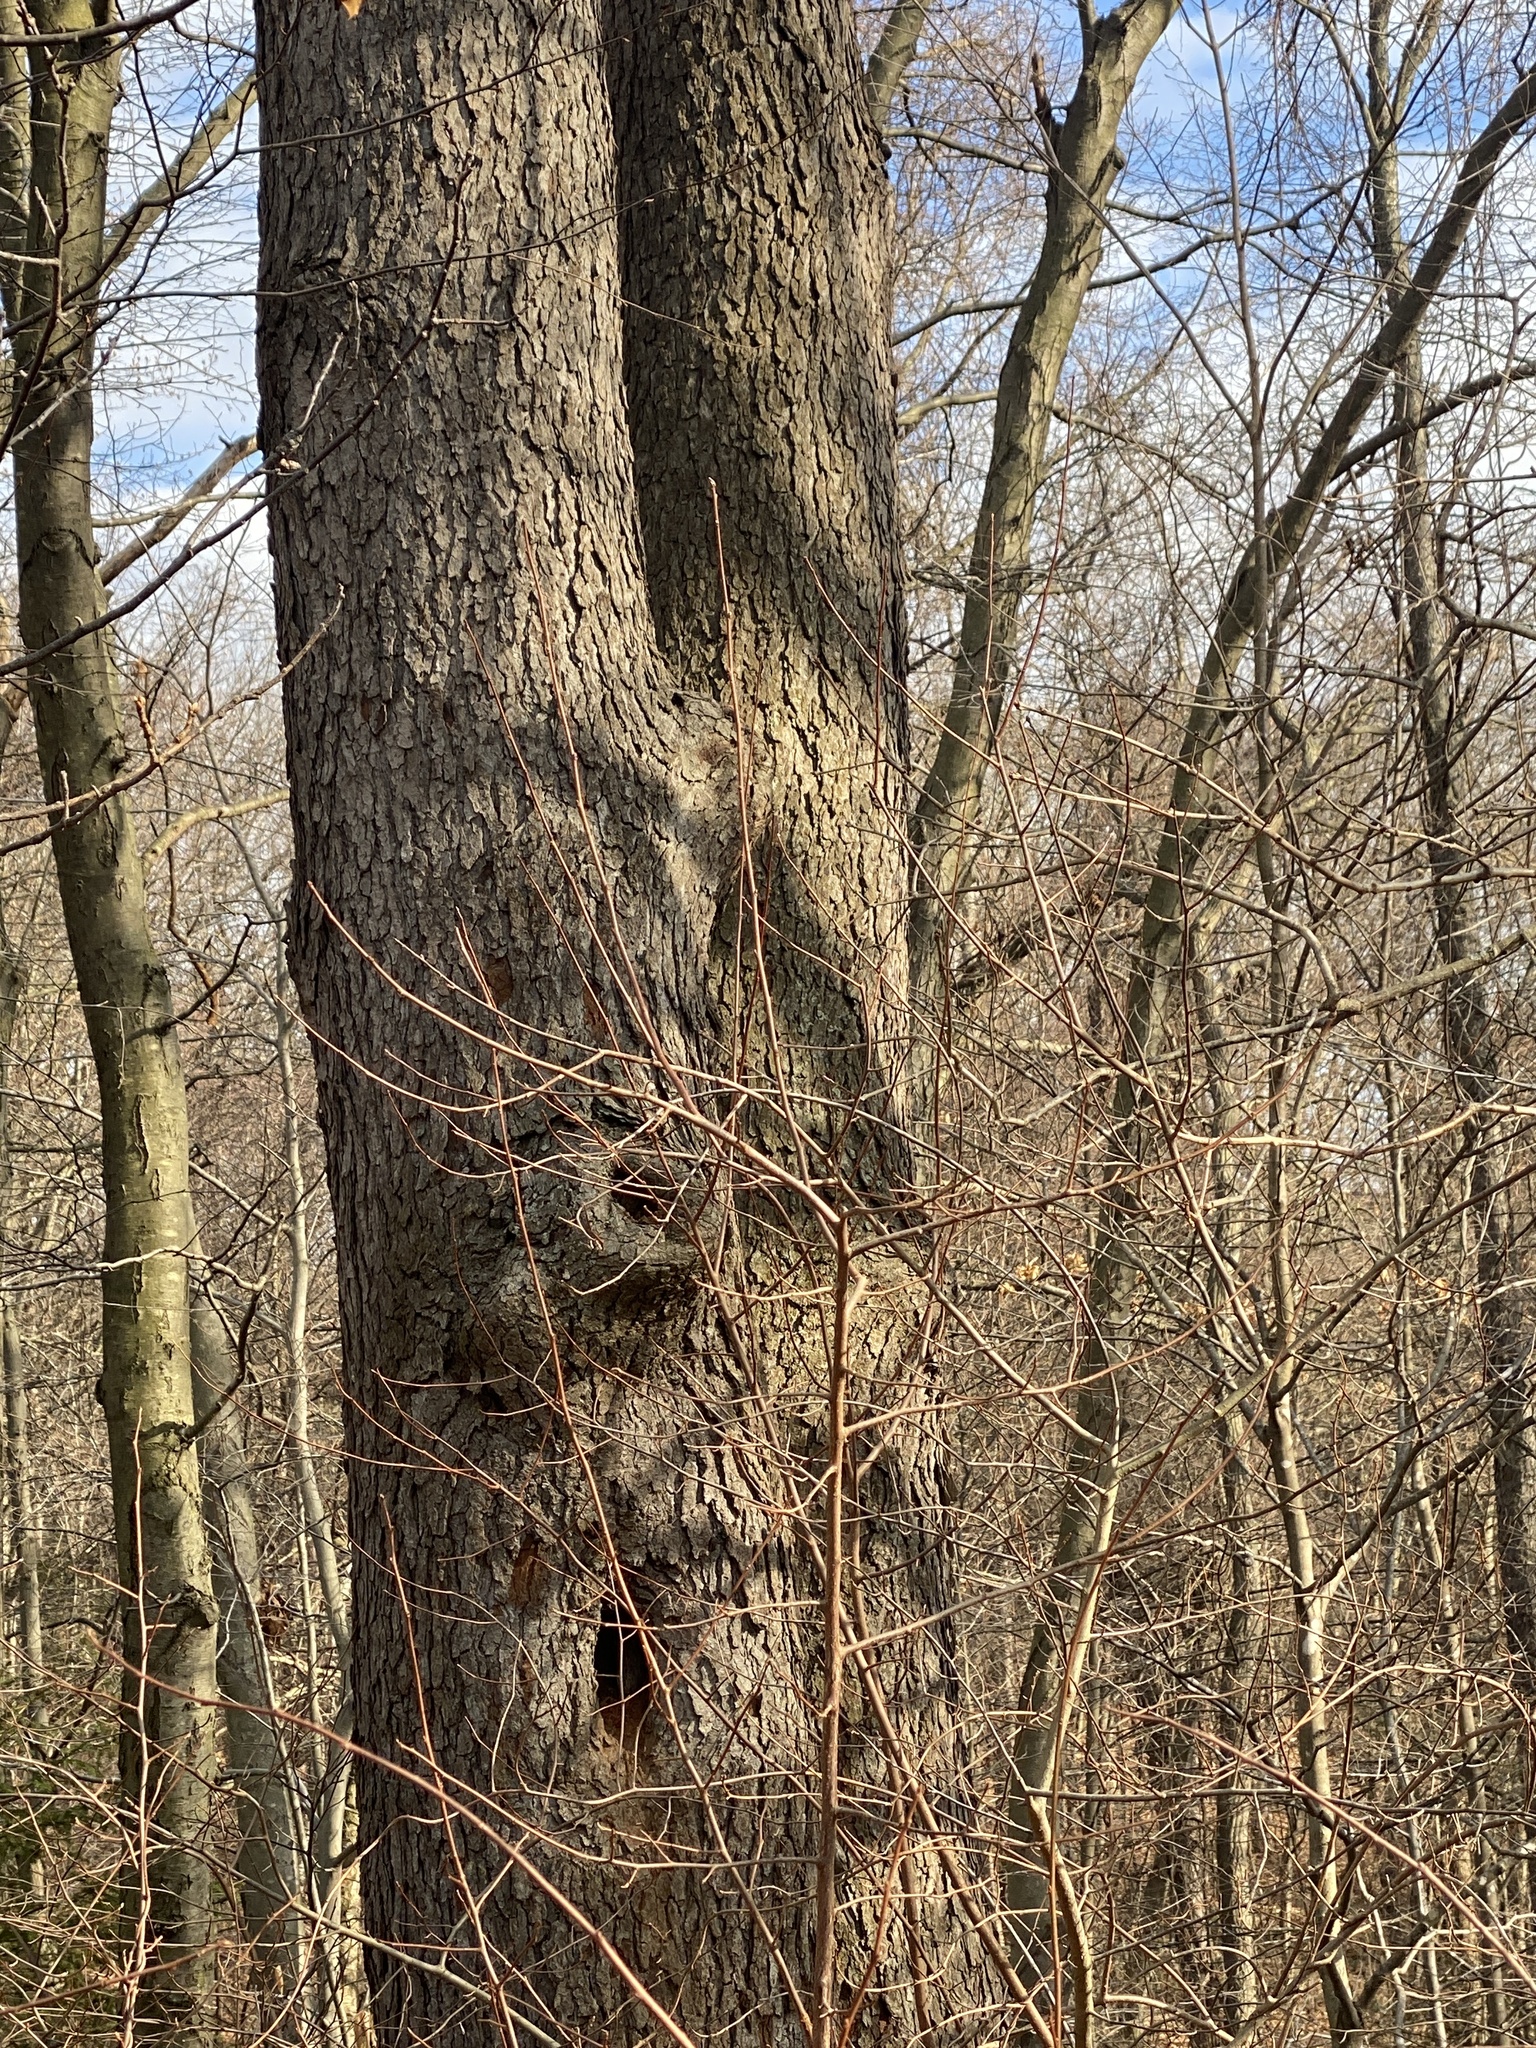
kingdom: Plantae
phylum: Tracheophyta
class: Magnoliopsida
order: Rosales
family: Rosaceae
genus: Prunus
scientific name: Prunus serotina
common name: Black cherry
